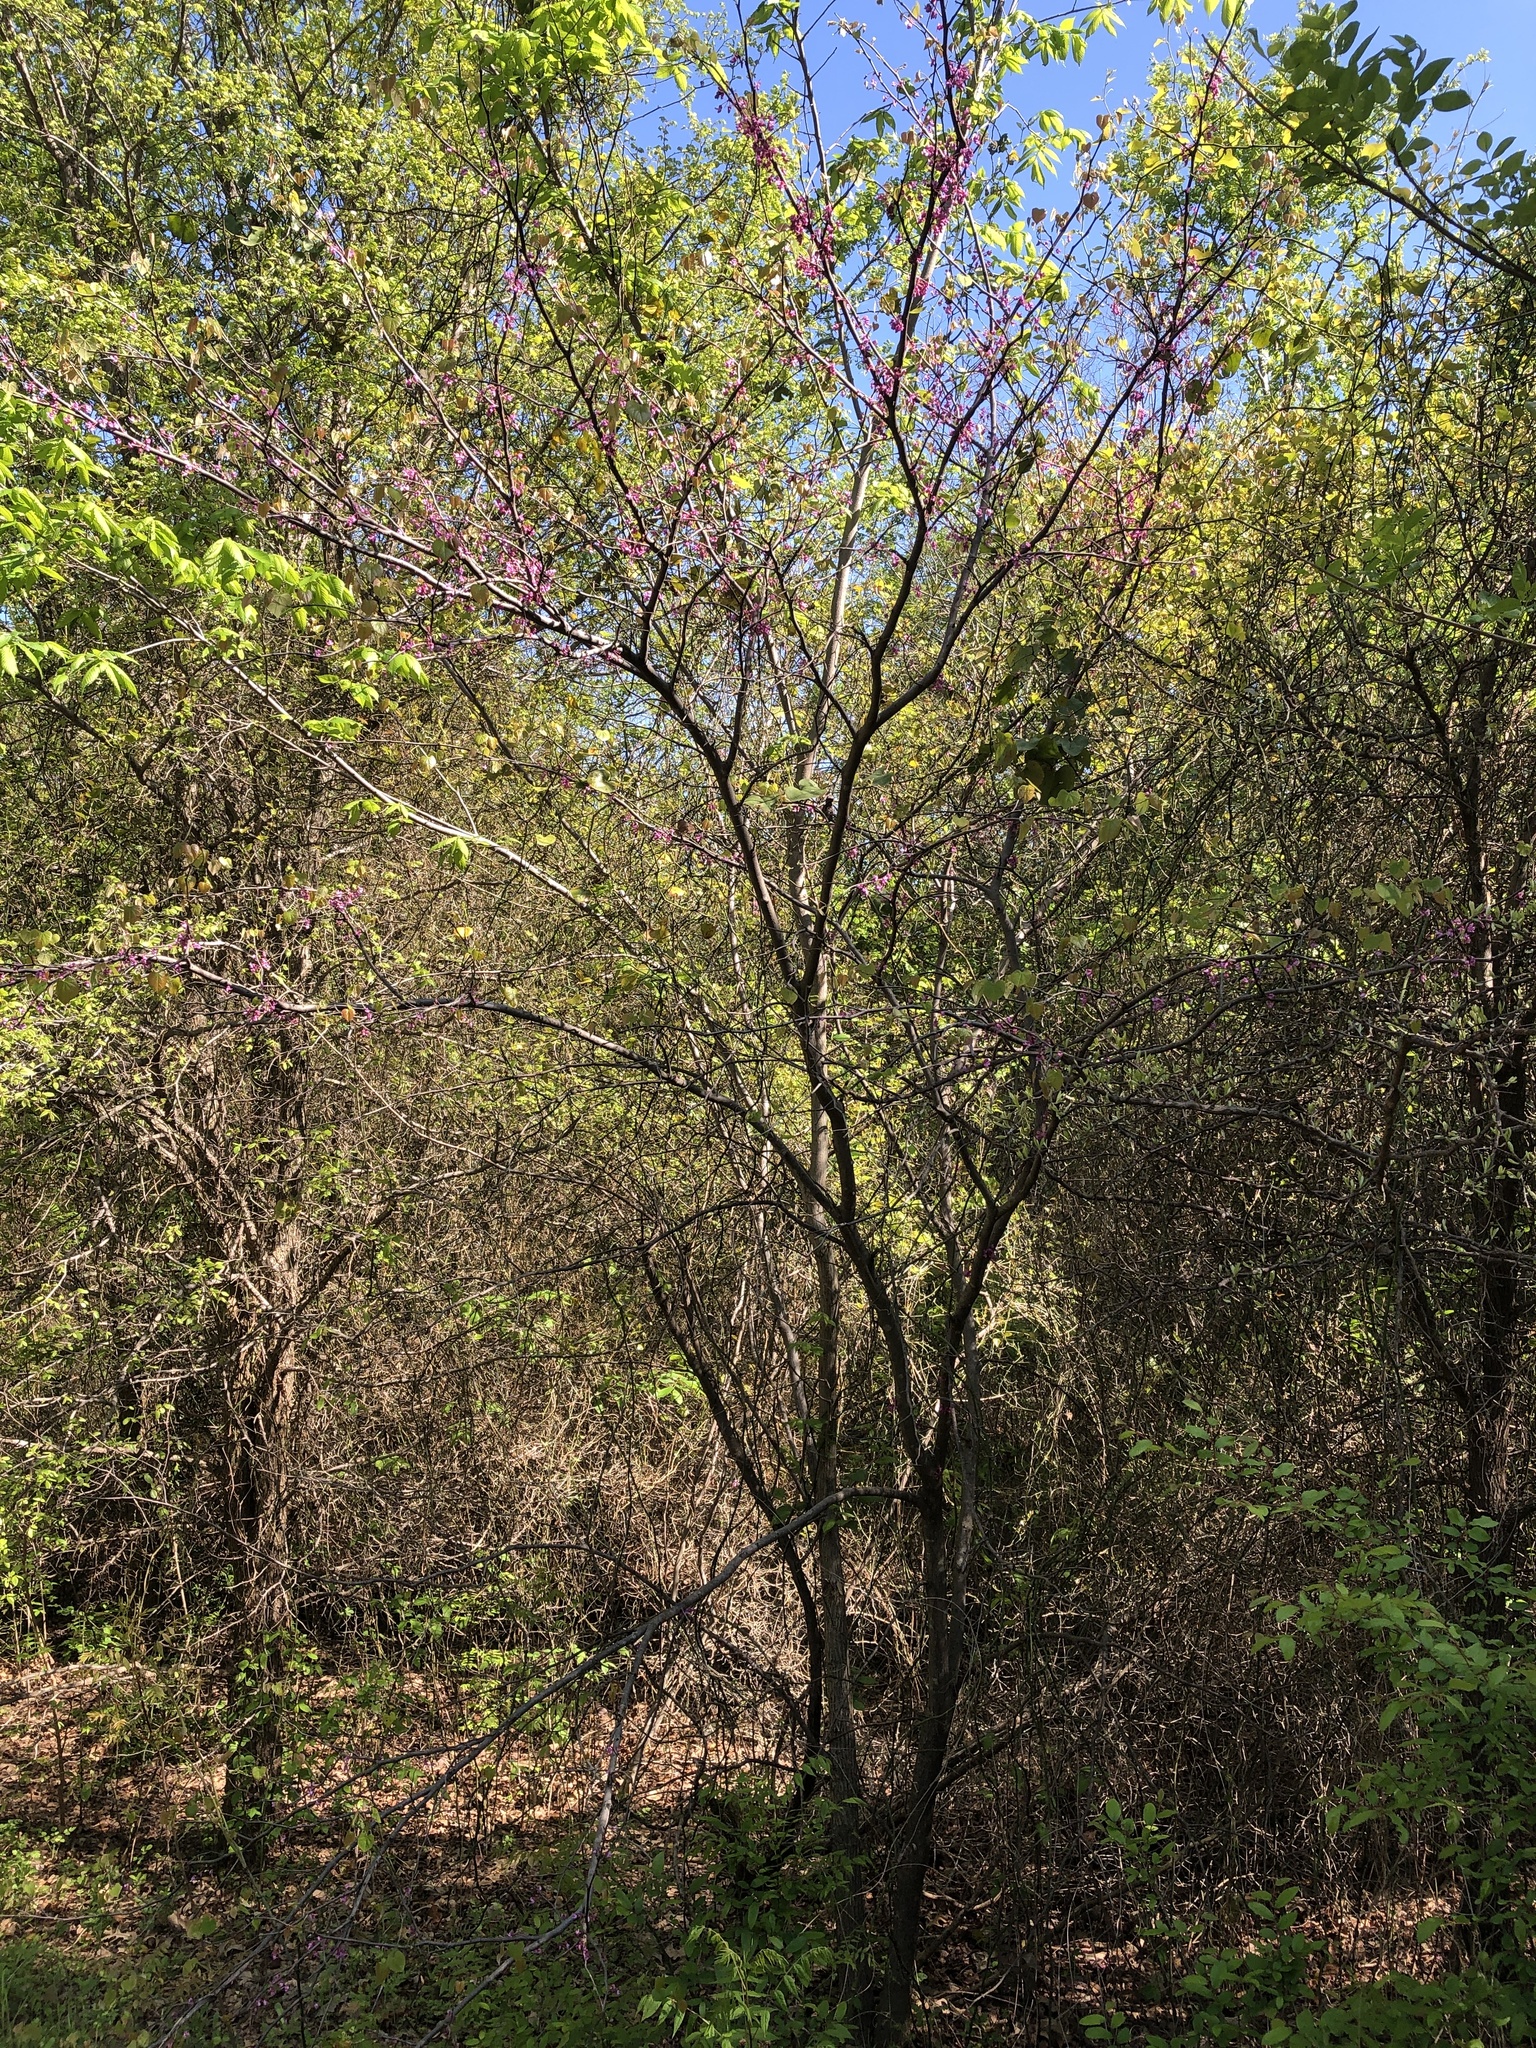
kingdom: Plantae
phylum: Tracheophyta
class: Magnoliopsida
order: Fabales
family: Fabaceae
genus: Cercis
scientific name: Cercis canadensis
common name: Eastern redbud
